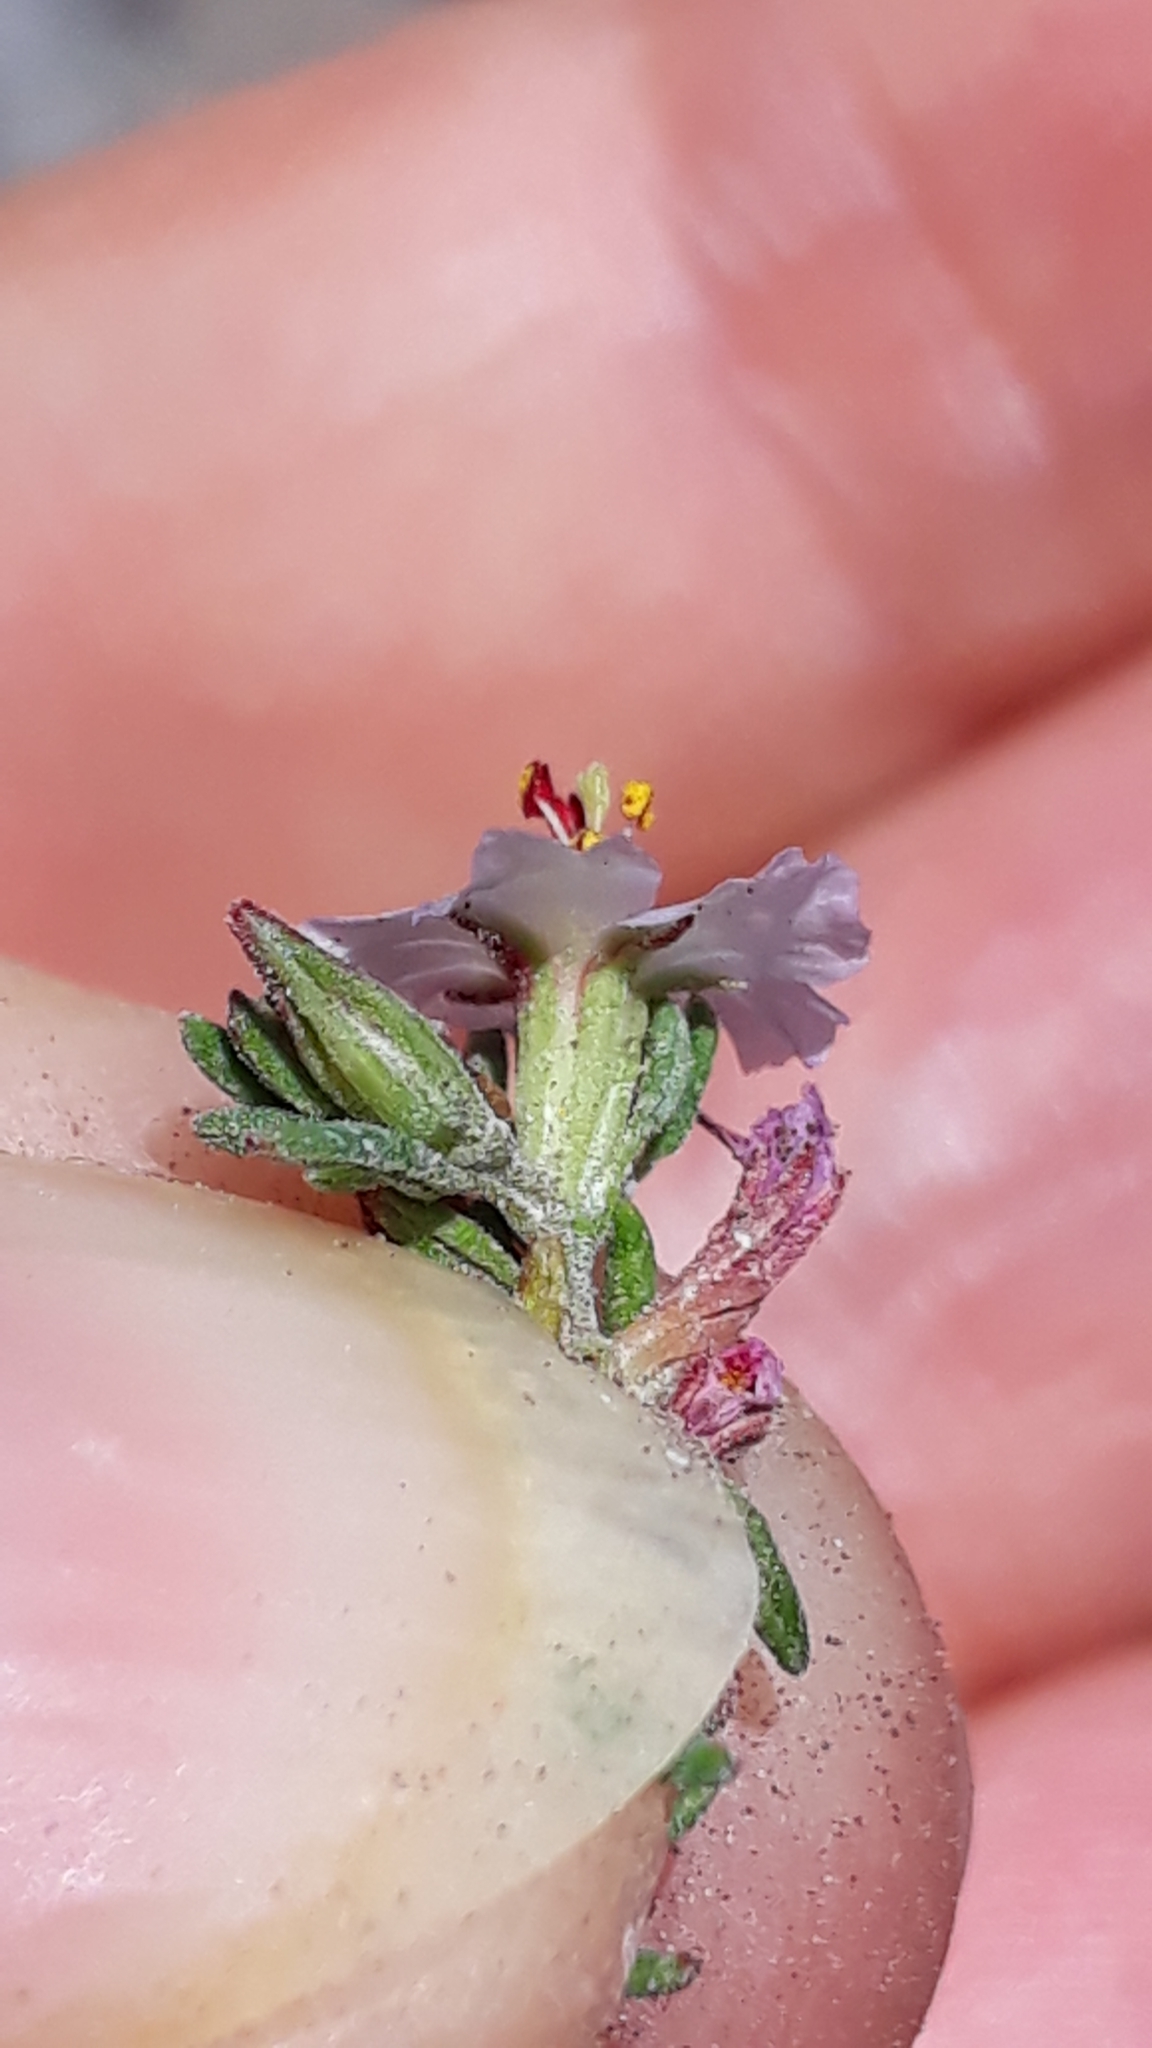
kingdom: Plantae
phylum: Tracheophyta
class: Magnoliopsida
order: Caryophyllales
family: Frankeniaceae
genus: Frankenia
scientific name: Frankenia capitata
